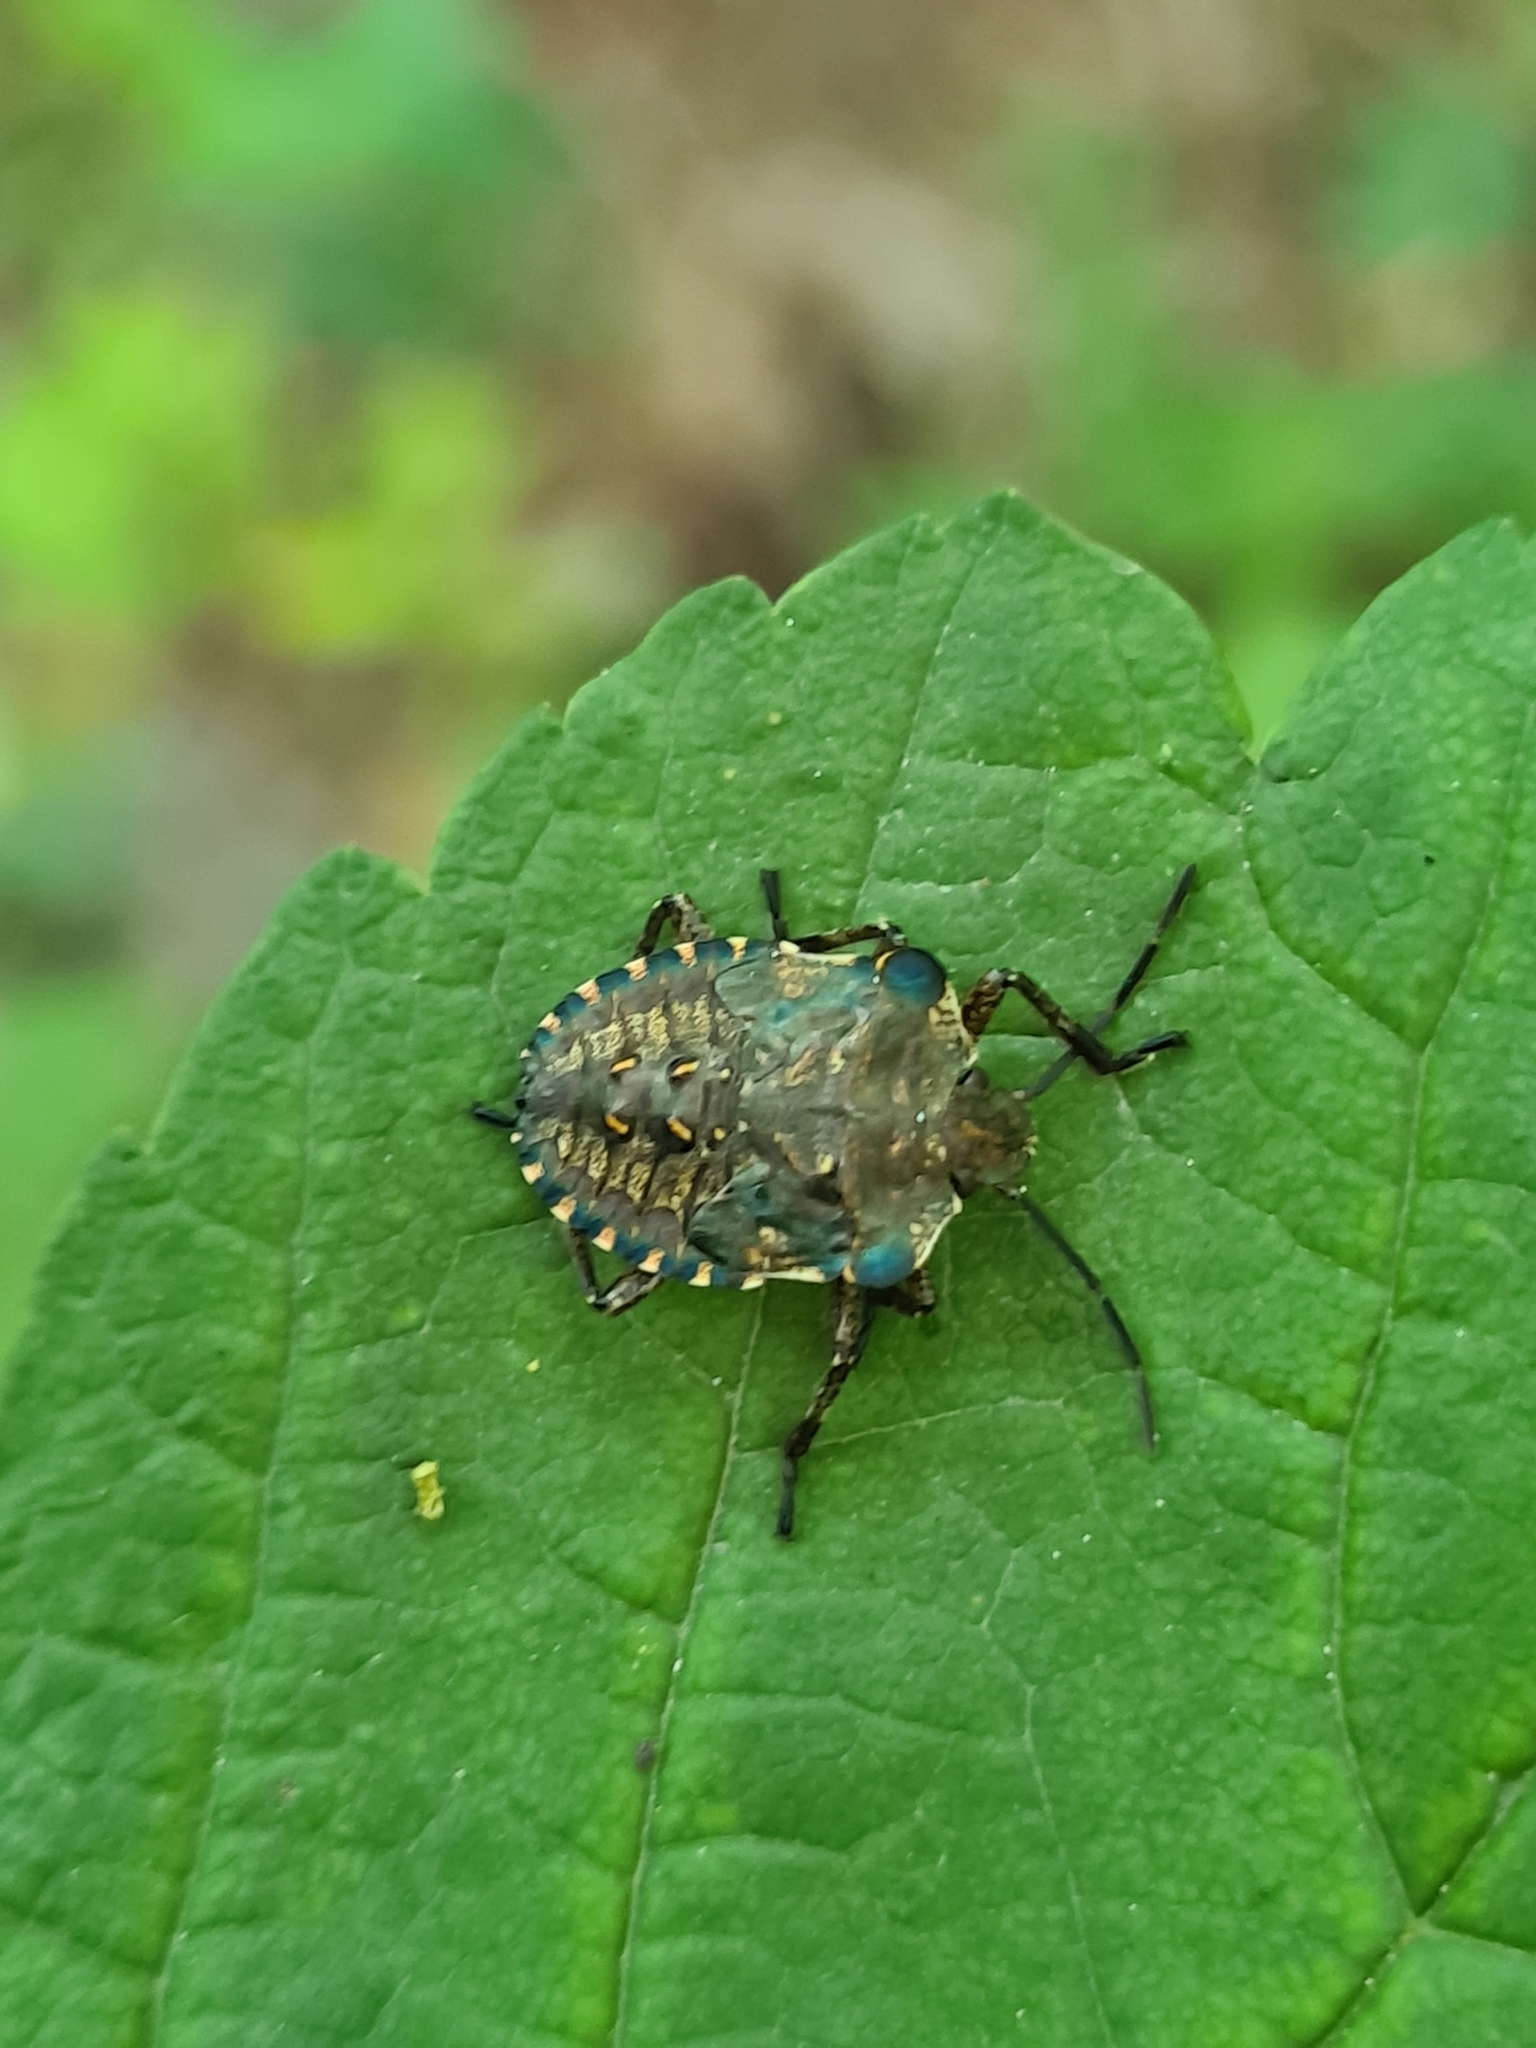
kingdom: Animalia
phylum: Arthropoda
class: Insecta
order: Hemiptera
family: Pentatomidae
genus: Pentatoma
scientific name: Pentatoma rufipes
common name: Forest bug
